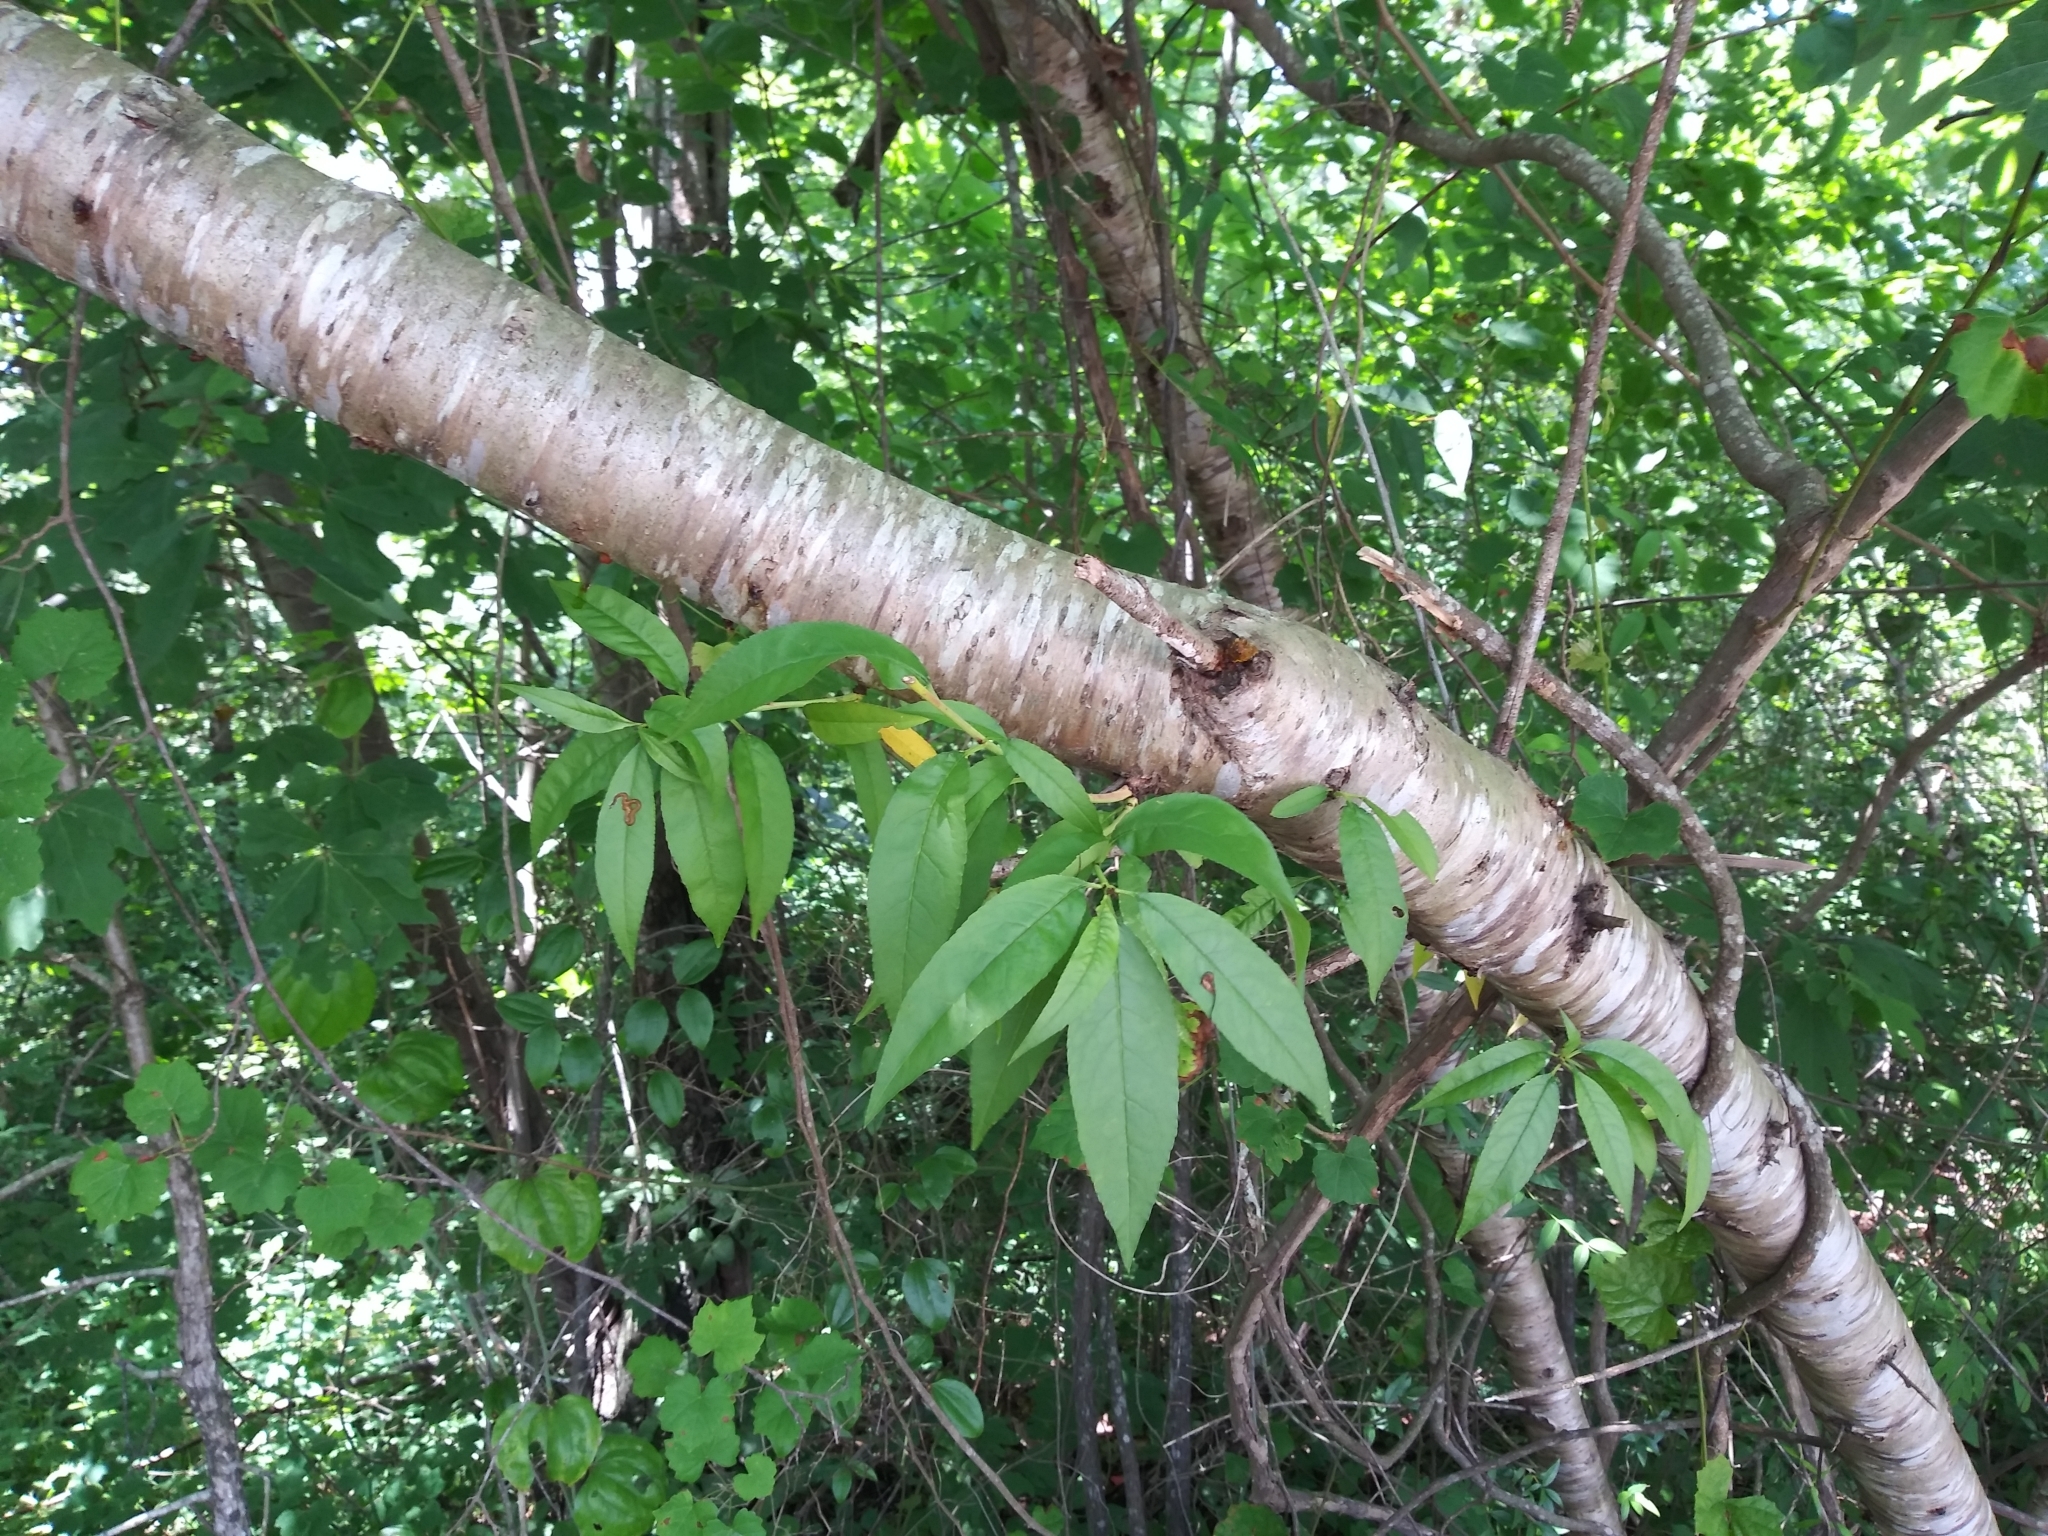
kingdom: Plantae
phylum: Tracheophyta
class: Magnoliopsida
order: Rosales
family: Rosaceae
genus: Prunus
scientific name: Prunus persica
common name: Peach
